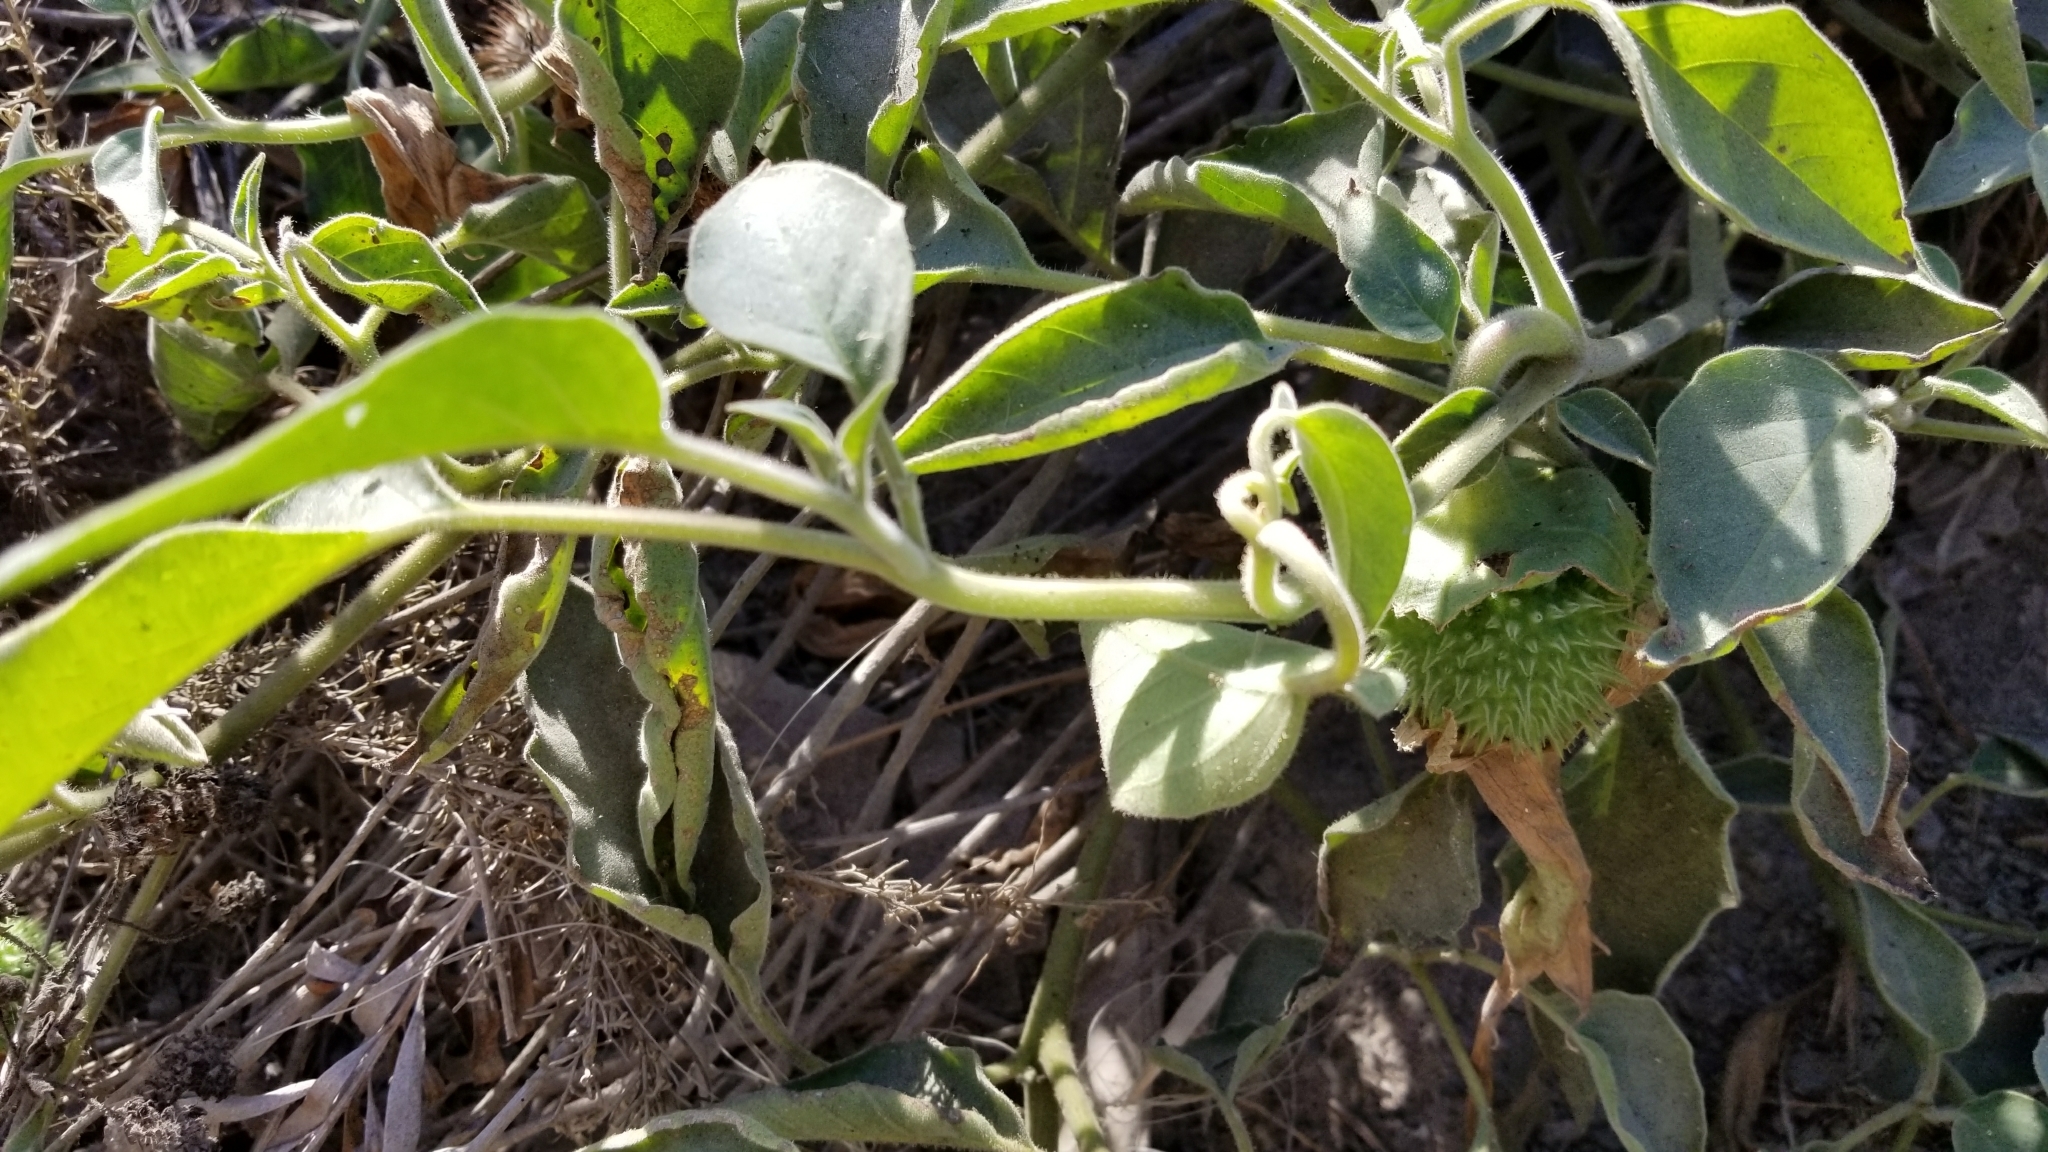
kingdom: Plantae
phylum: Tracheophyta
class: Magnoliopsida
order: Solanales
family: Solanaceae
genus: Datura
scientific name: Datura wrightii
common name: Sacred thorn-apple
